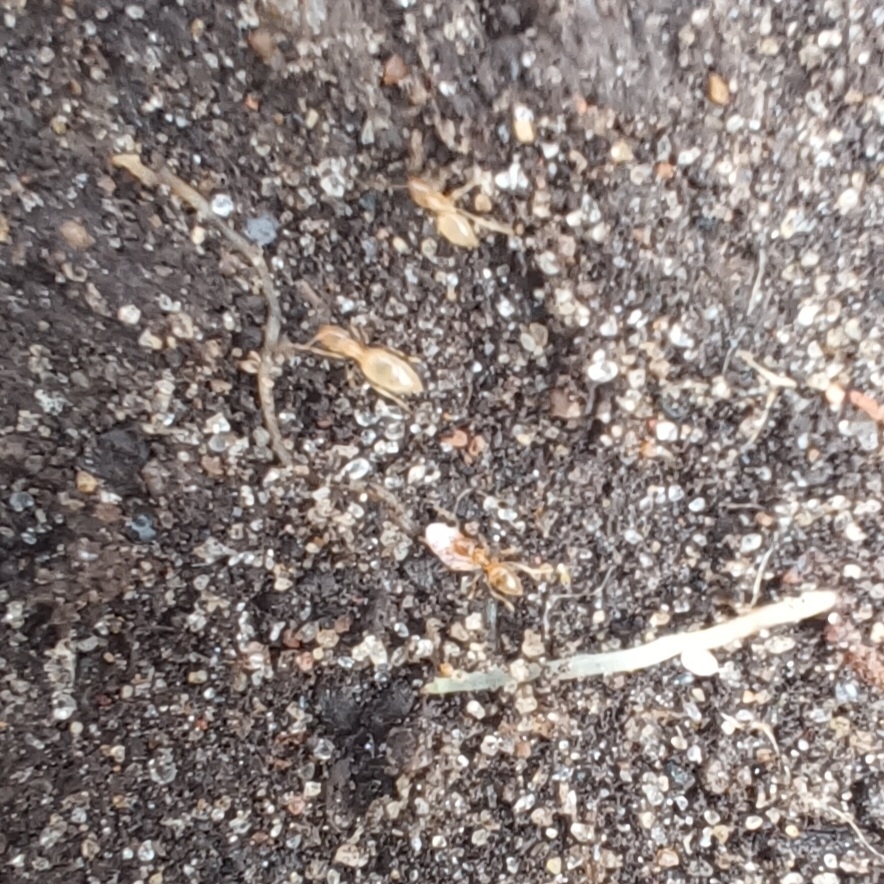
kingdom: Animalia
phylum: Arthropoda
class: Insecta
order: Hymenoptera
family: Formicidae
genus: Brachymyrmex
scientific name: Brachymyrmex depilis
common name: Hairless rover ant
